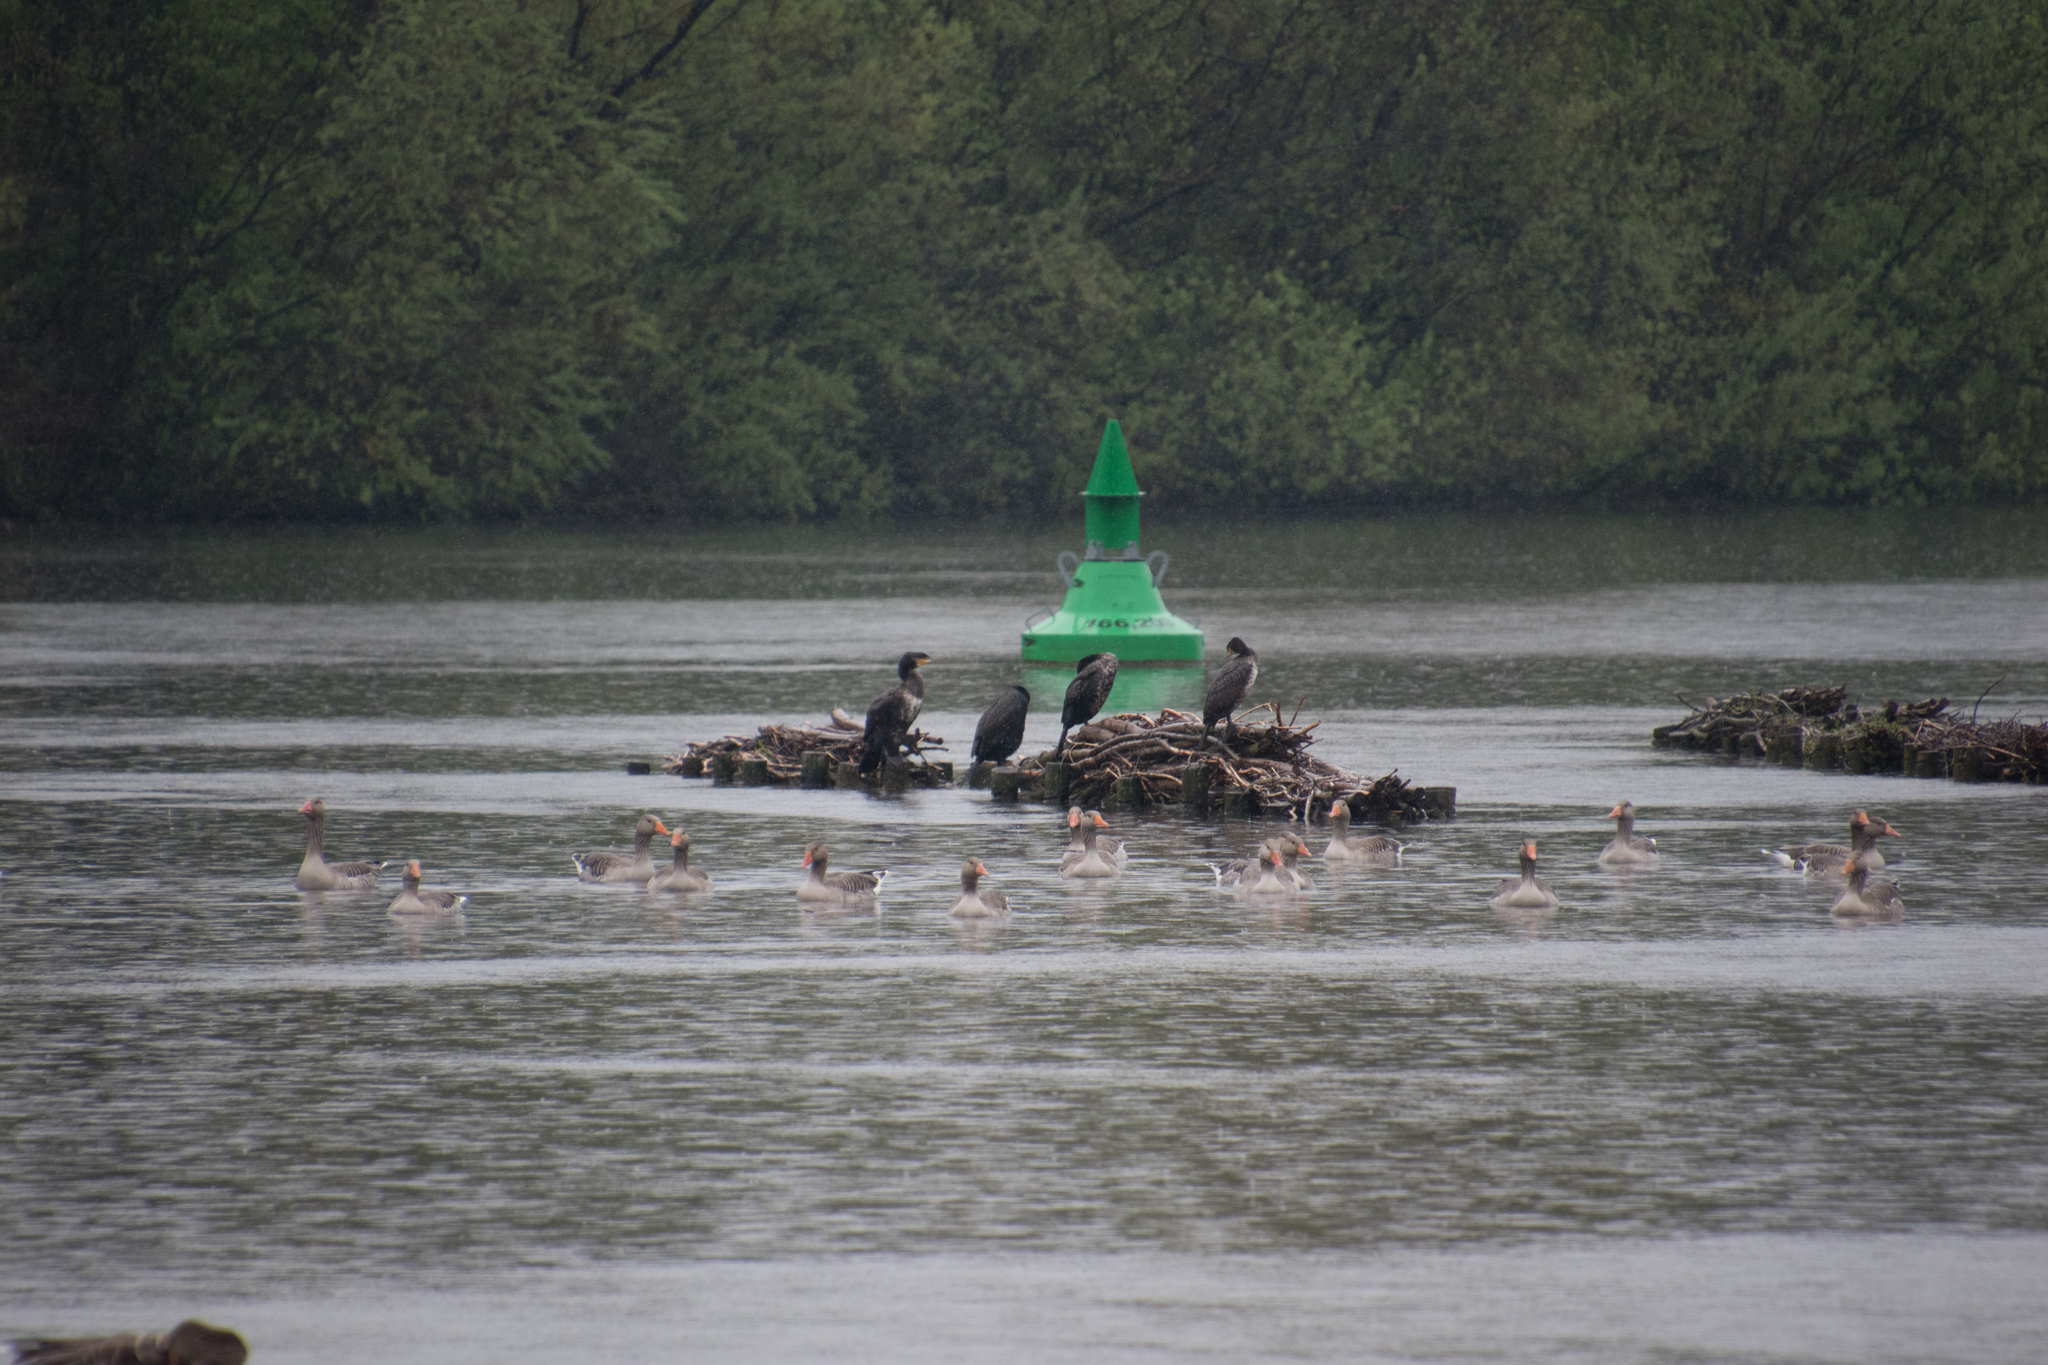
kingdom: Animalia
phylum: Chordata
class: Aves
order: Anseriformes
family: Anatidae
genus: Anser
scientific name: Anser anser
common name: Greylag goose
